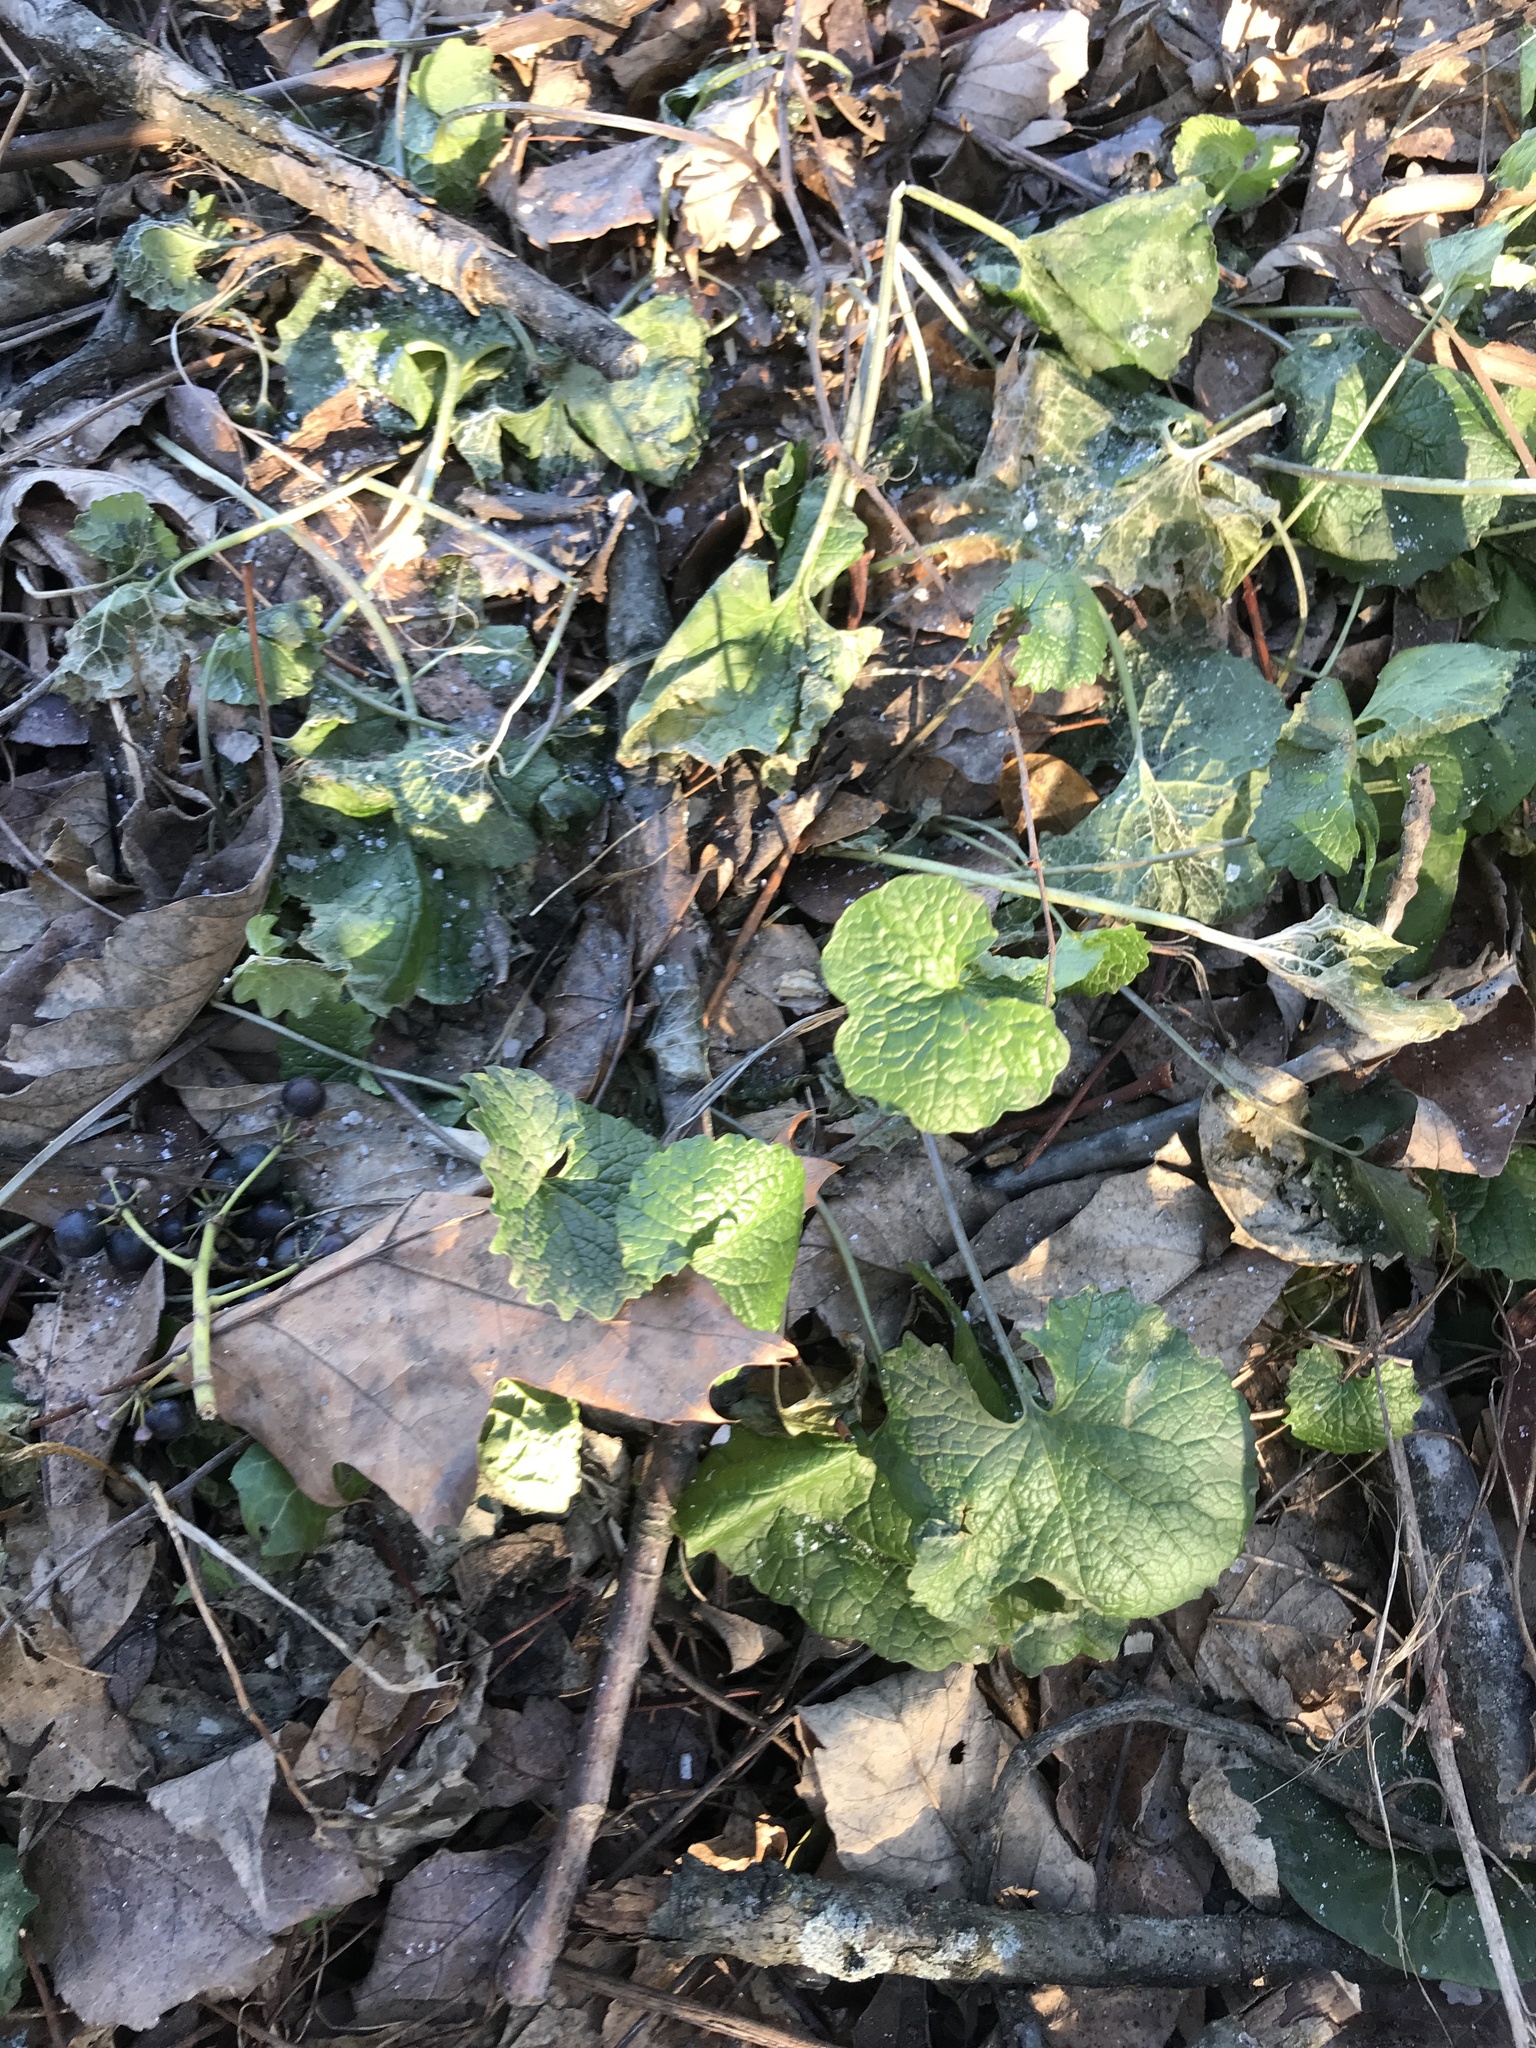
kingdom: Plantae
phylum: Tracheophyta
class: Magnoliopsida
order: Brassicales
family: Brassicaceae
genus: Alliaria
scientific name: Alliaria petiolata
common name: Garlic mustard
